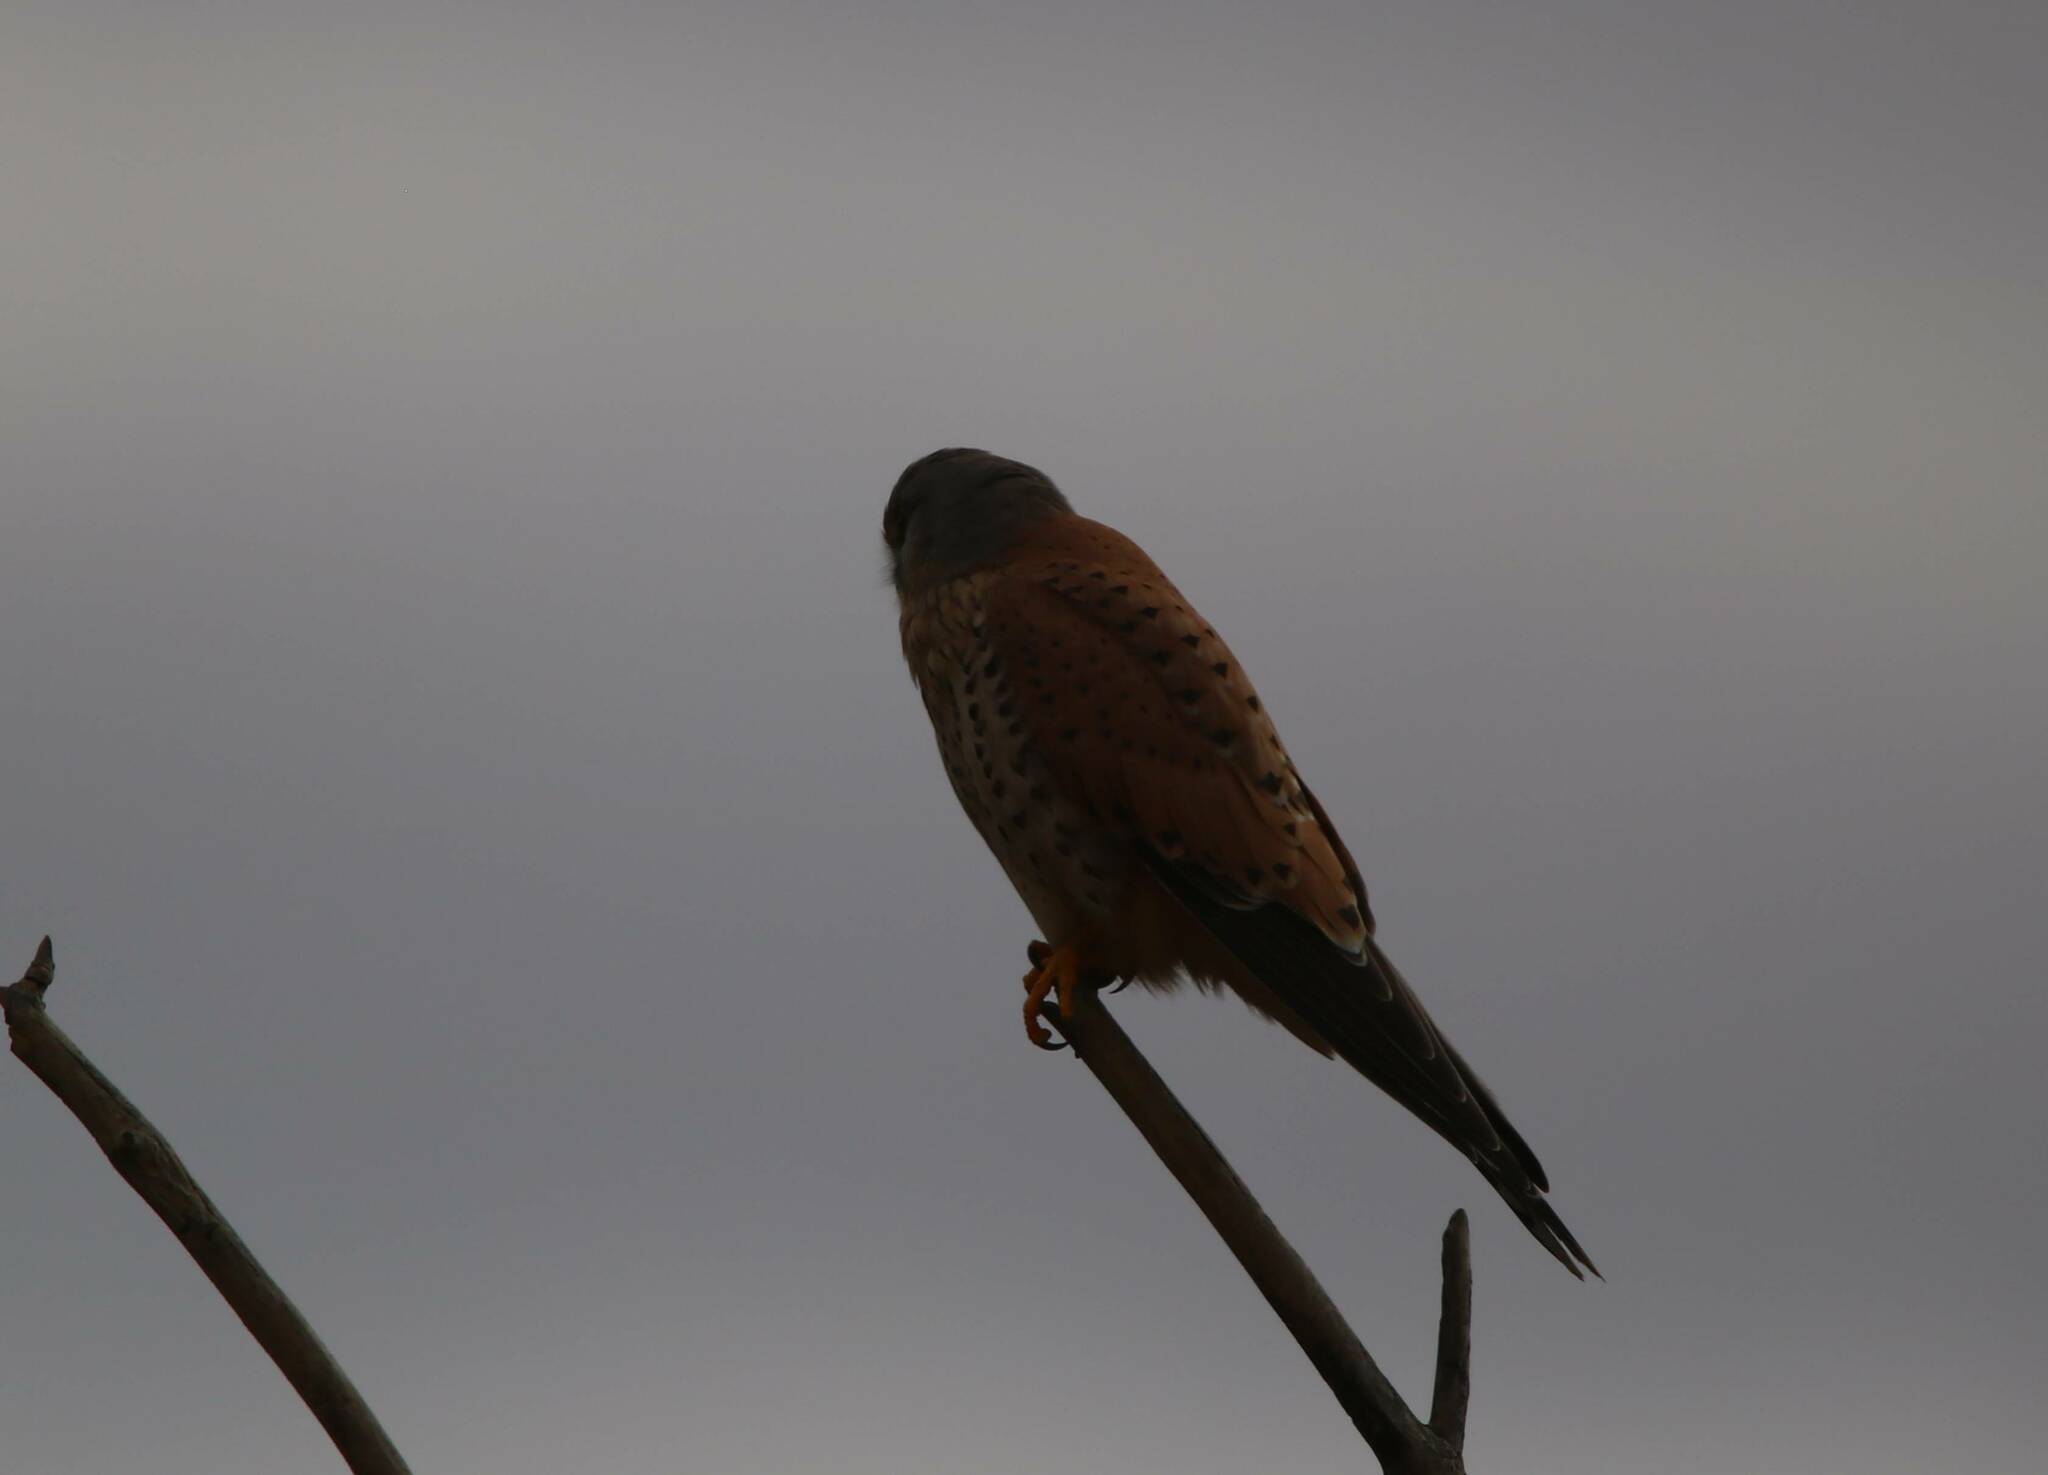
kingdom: Animalia
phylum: Chordata
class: Aves
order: Falconiformes
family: Falconidae
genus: Falco
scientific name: Falco tinnunculus
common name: Common kestrel
